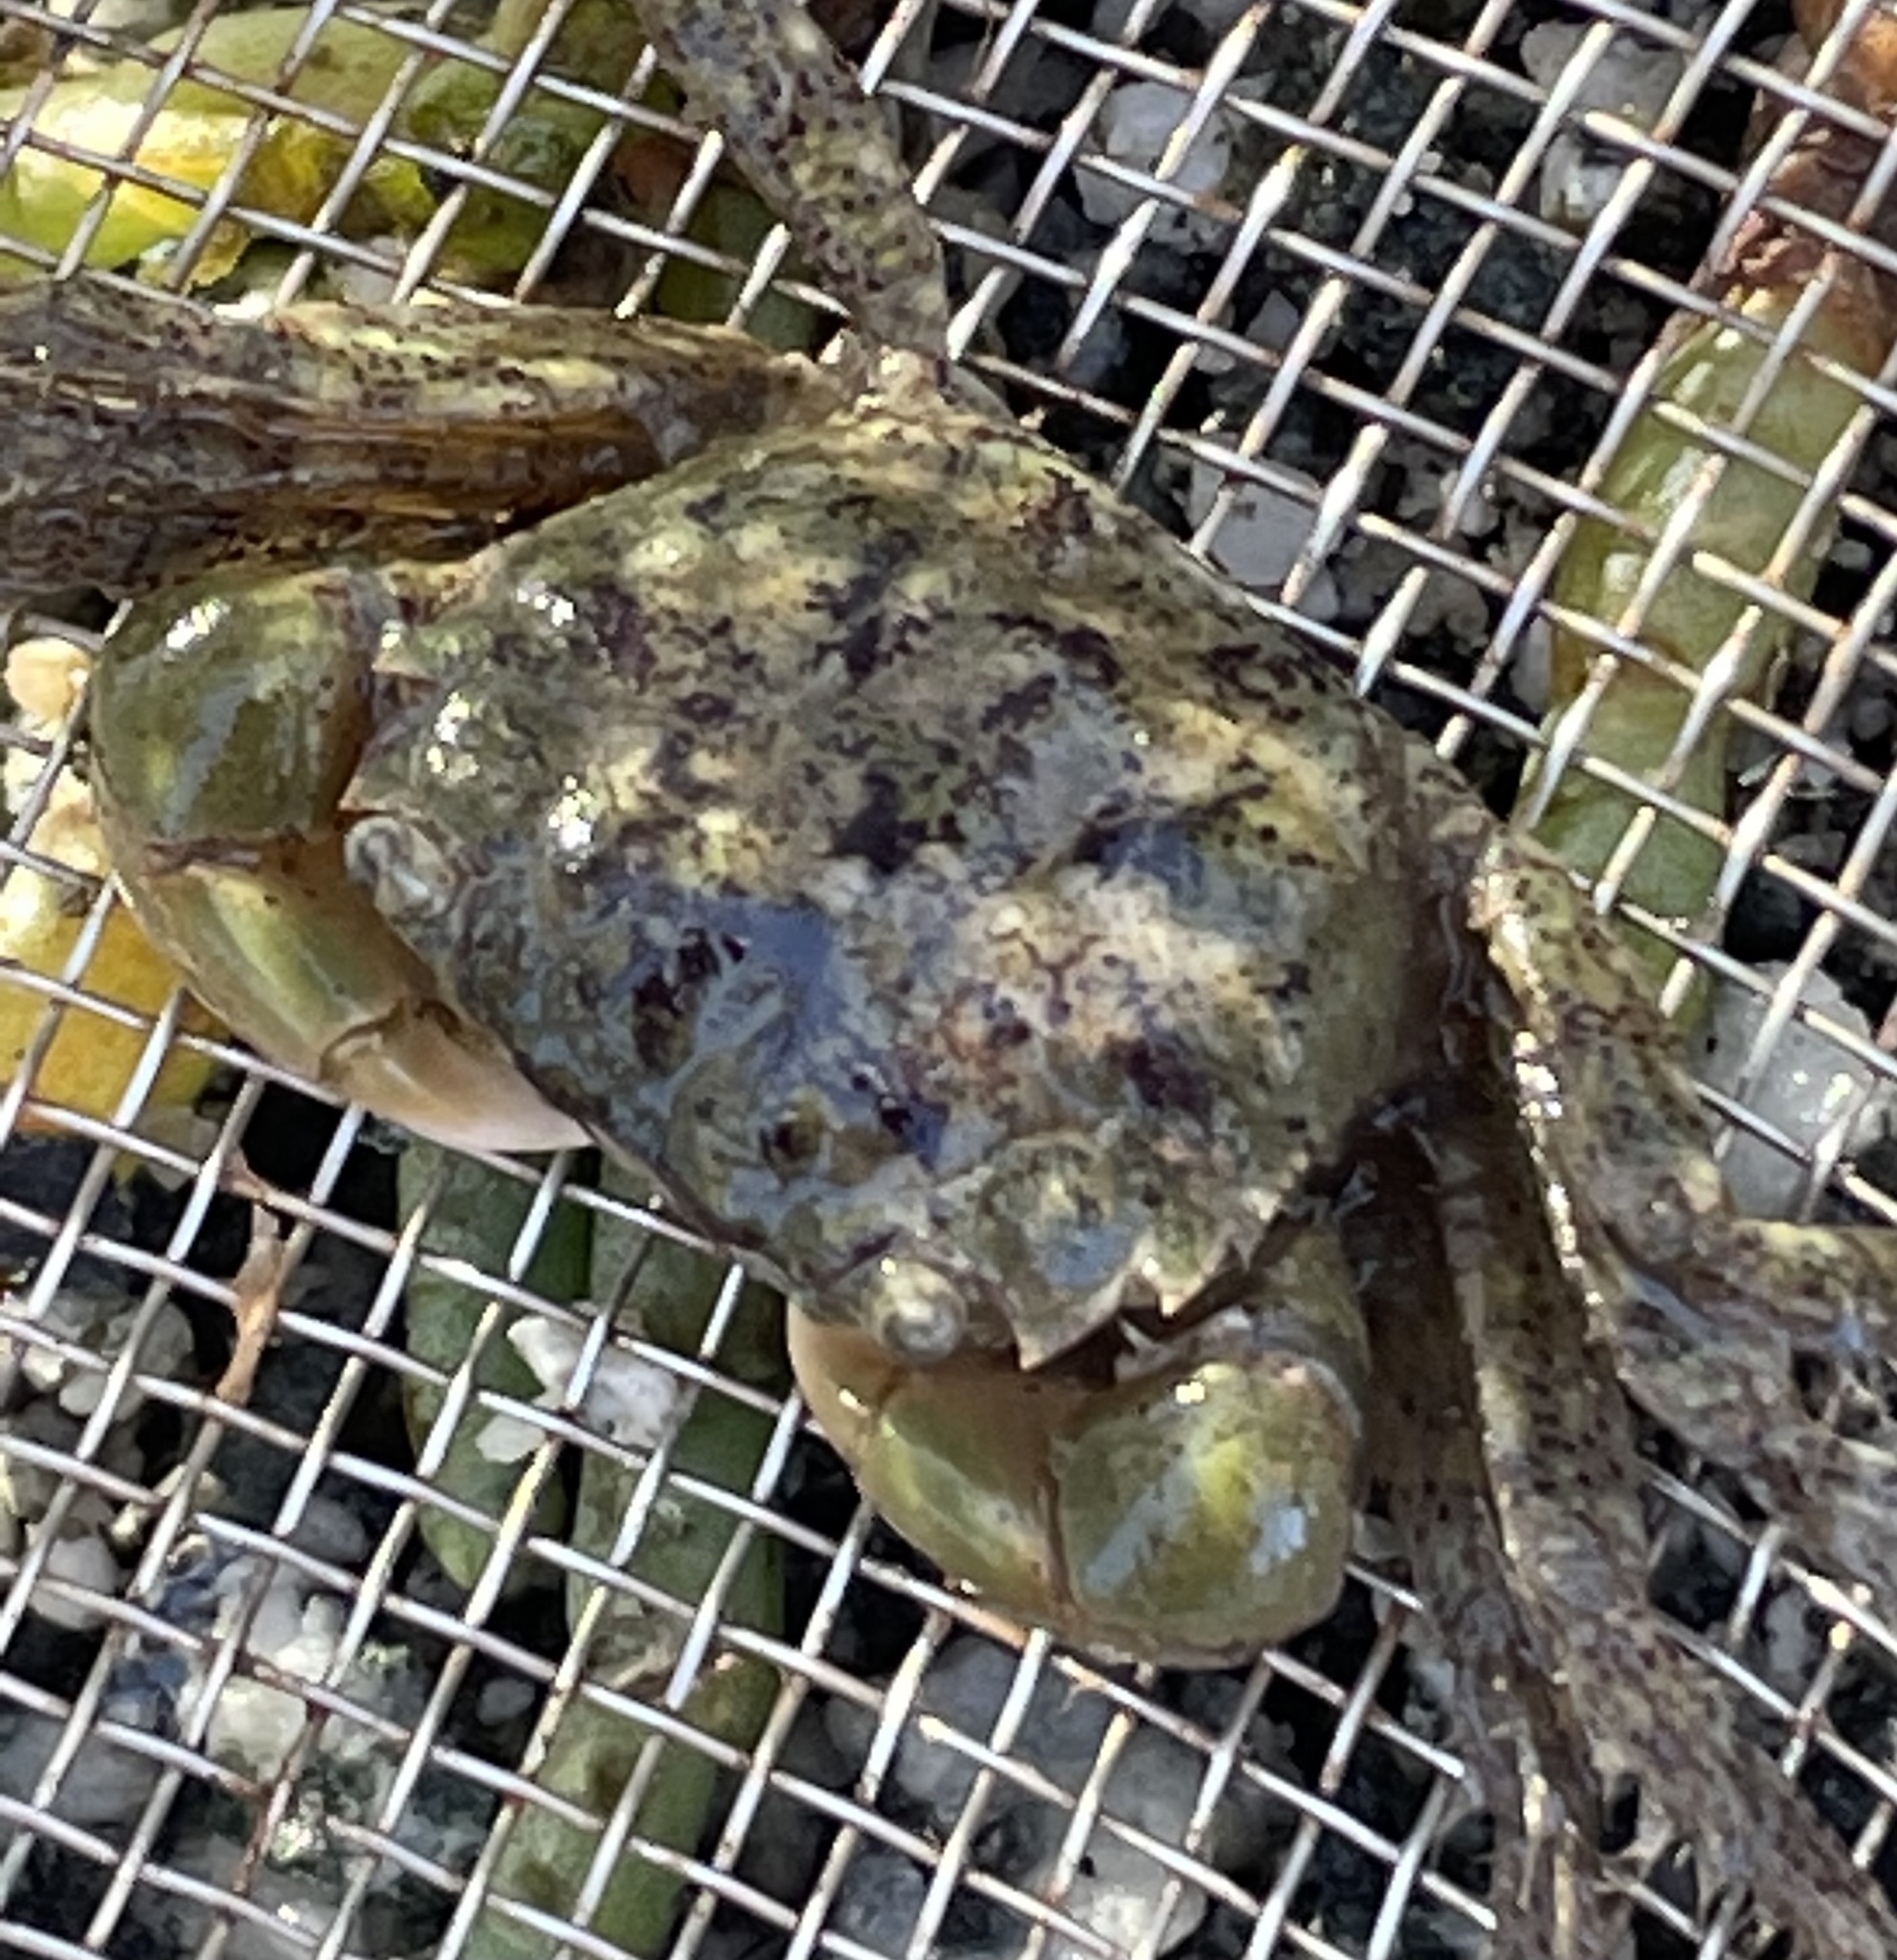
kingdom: Animalia
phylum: Arthropoda
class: Malacostraca
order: Decapoda
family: Varunidae
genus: Hemigrapsus
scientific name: Hemigrapsus oregonensis
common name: Yellow shore crab
